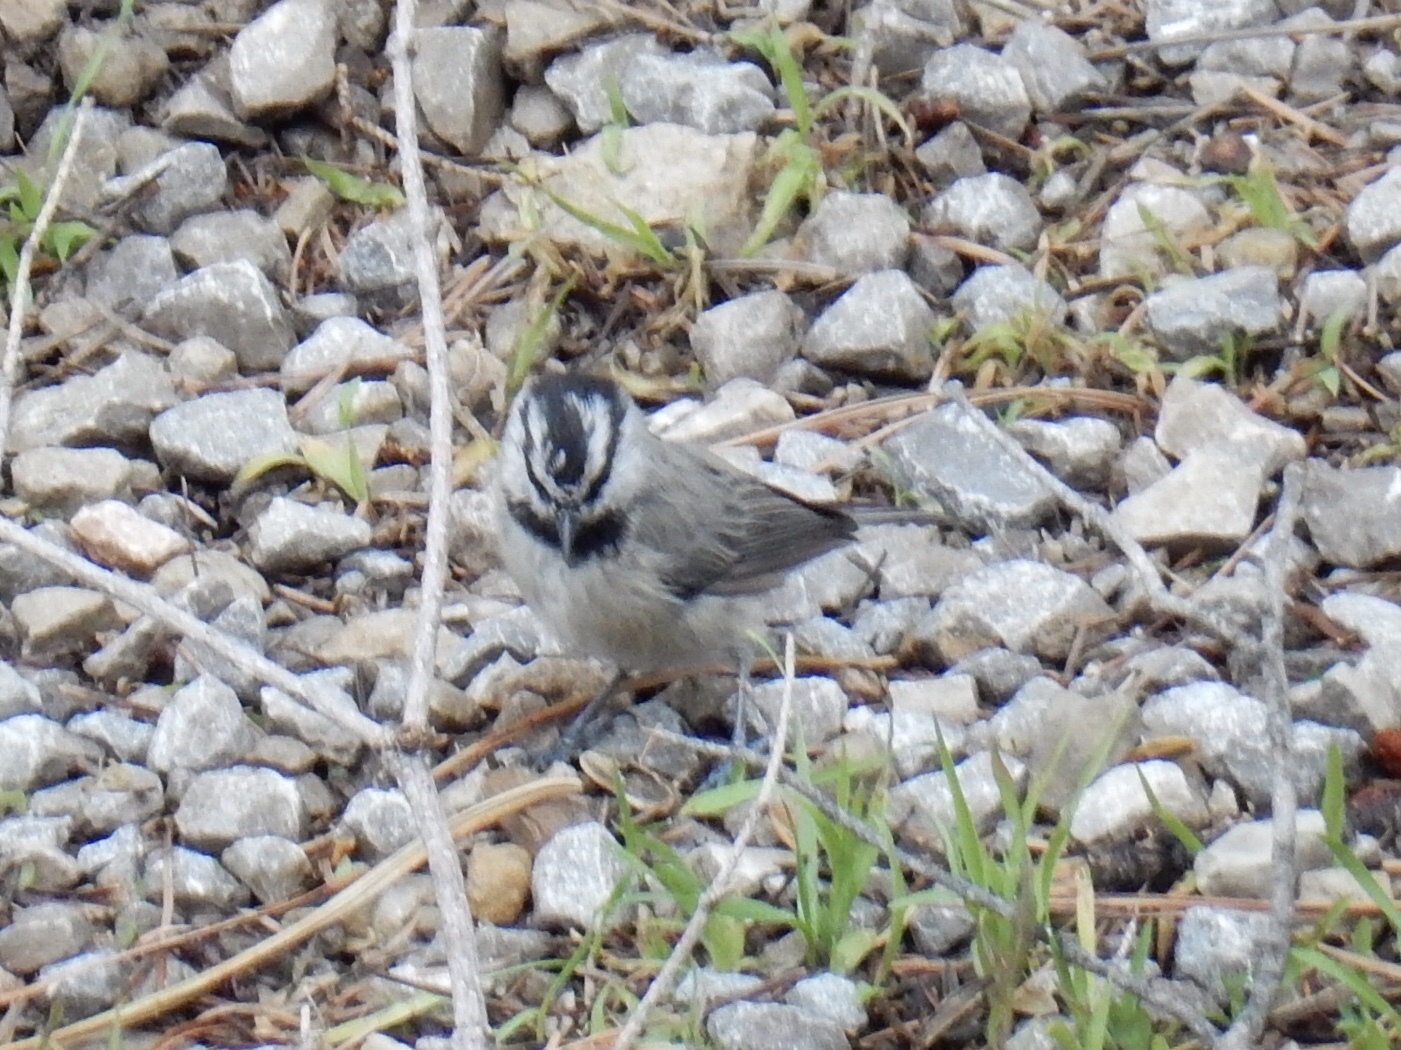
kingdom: Animalia
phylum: Chordata
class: Aves
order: Passeriformes
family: Paridae
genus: Poecile
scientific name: Poecile gambeli
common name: Mountain chickadee
